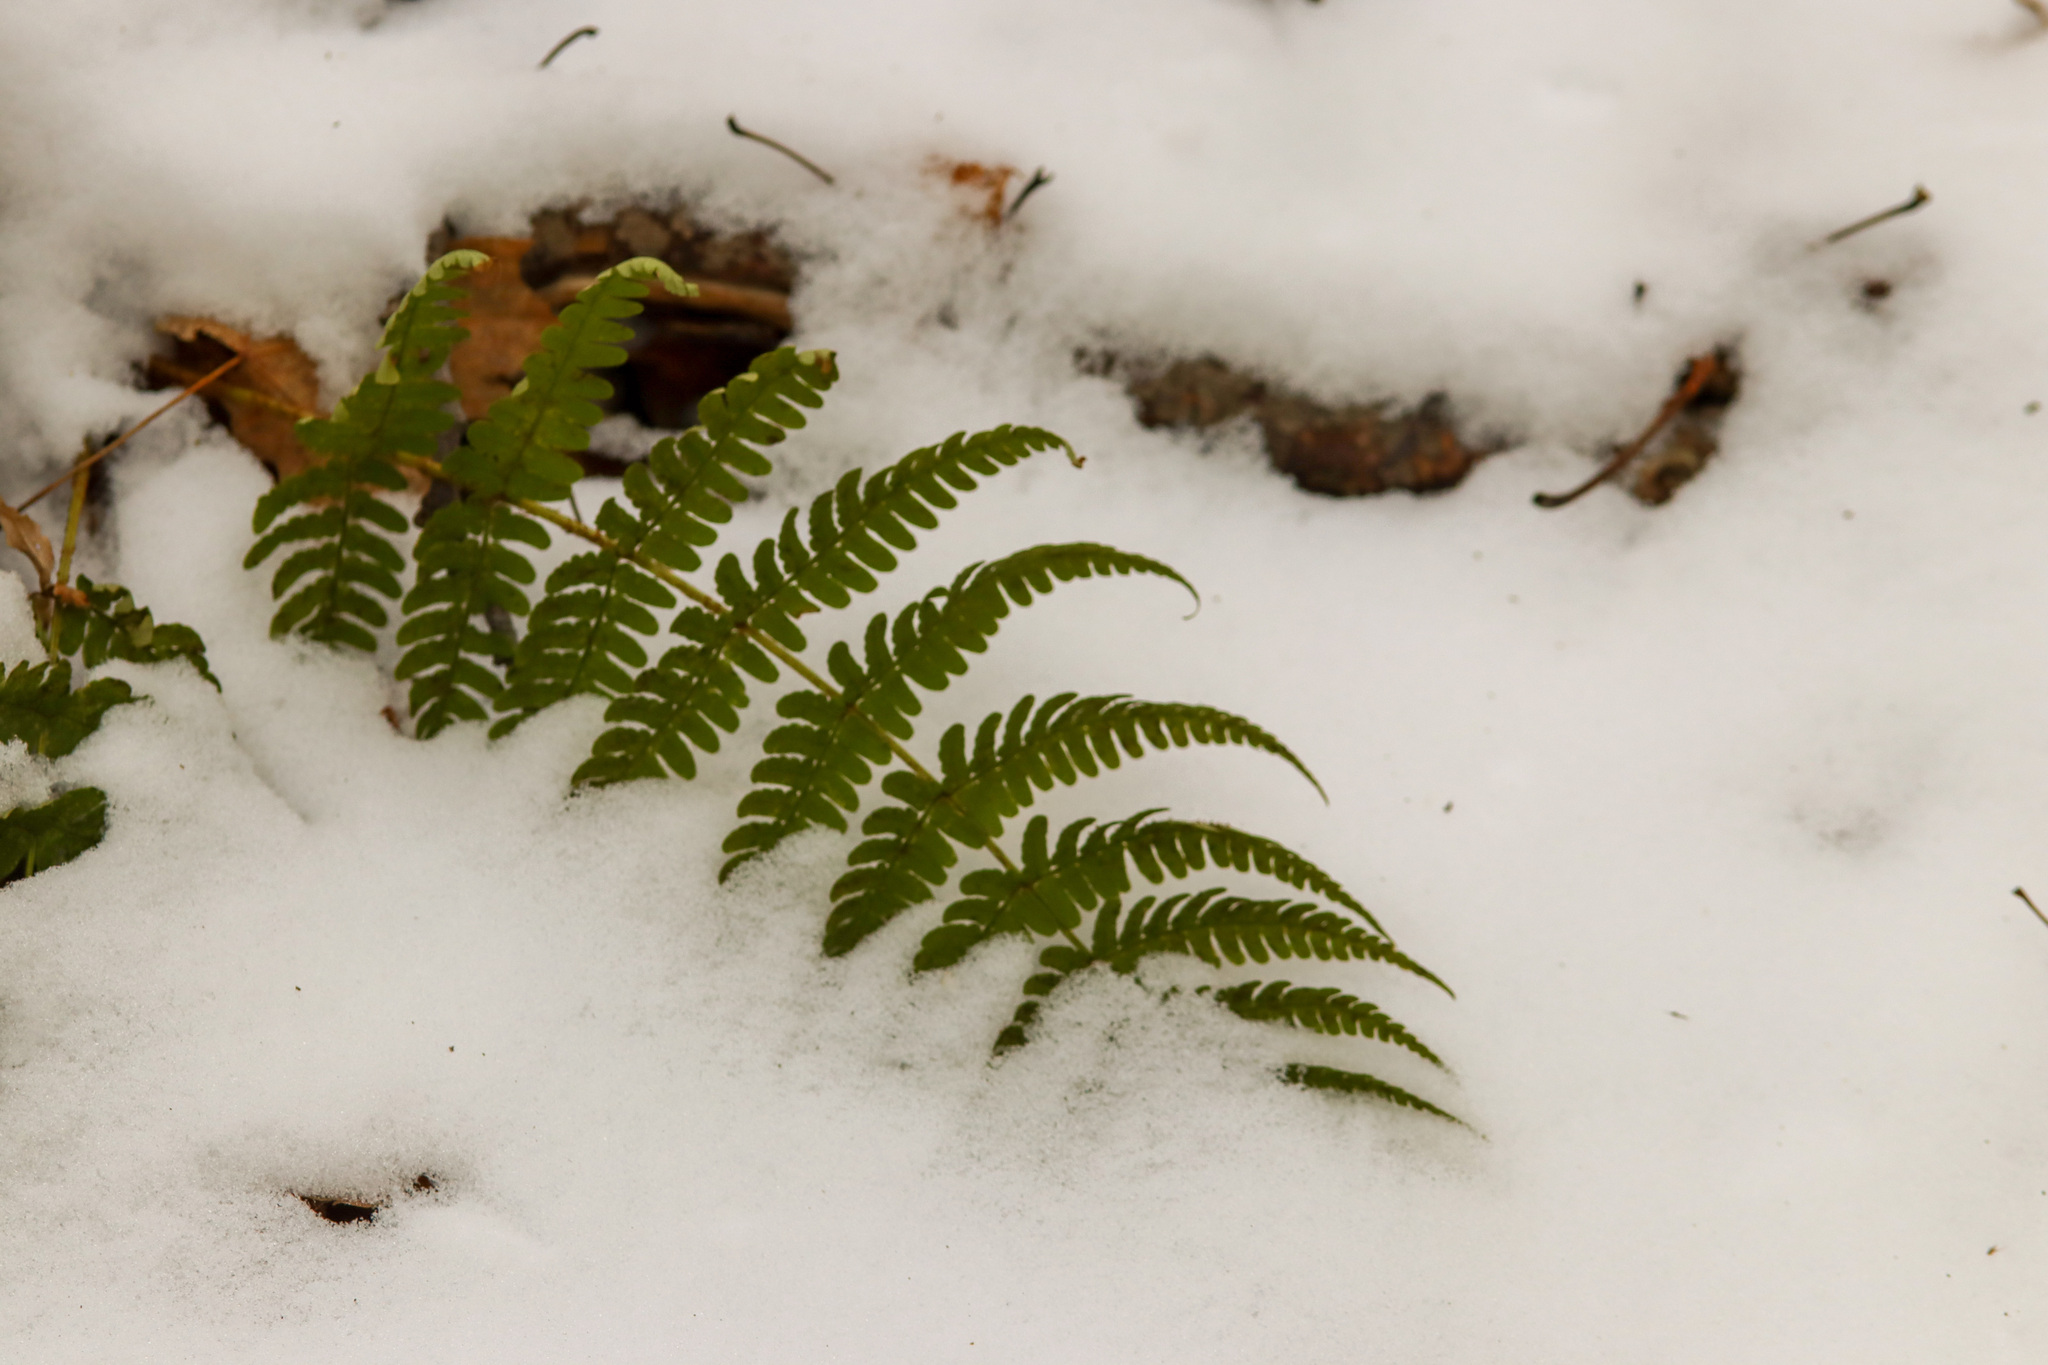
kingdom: Plantae
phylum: Tracheophyta
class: Polypodiopsida
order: Polypodiales
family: Dryopteridaceae
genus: Dryopteris
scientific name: Dryopteris marginalis
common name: Marginal wood fern
